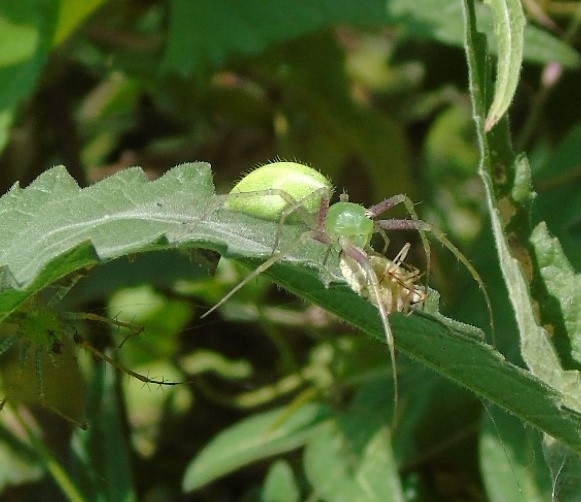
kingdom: Animalia
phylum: Arthropoda
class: Arachnida
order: Araneae
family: Oxyopidae
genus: Peucetia
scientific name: Peucetia longipalpis
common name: Lynx spiders
